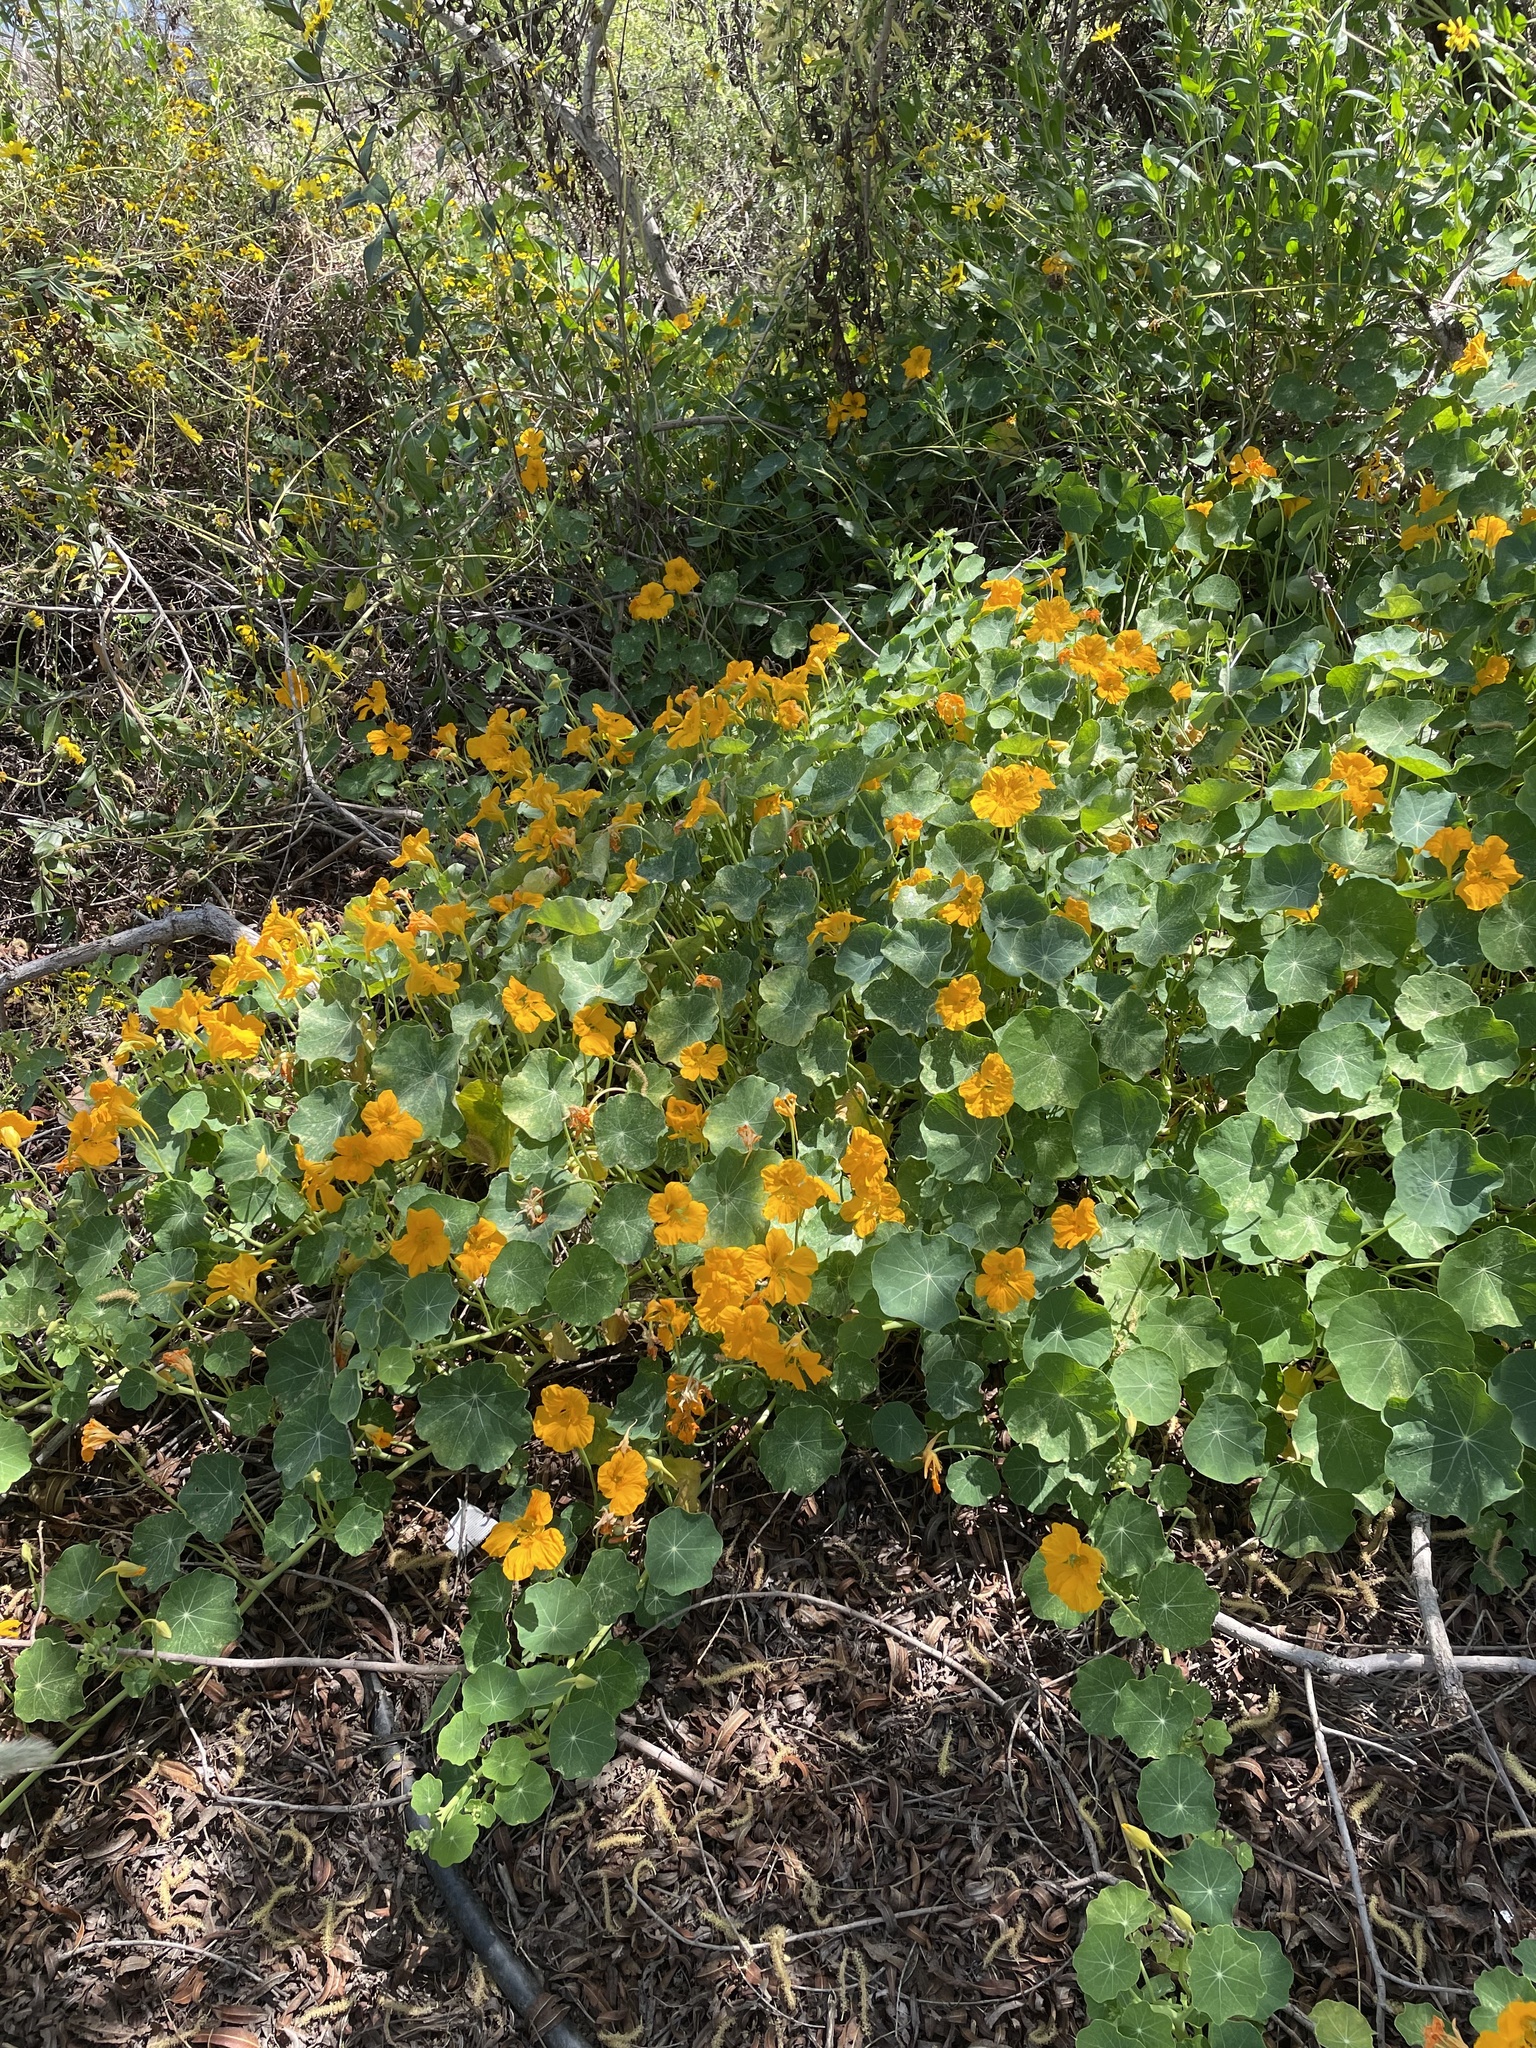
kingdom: Plantae
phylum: Tracheophyta
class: Magnoliopsida
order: Brassicales
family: Tropaeolaceae
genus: Tropaeolum
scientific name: Tropaeolum majus
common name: Nasturtium
